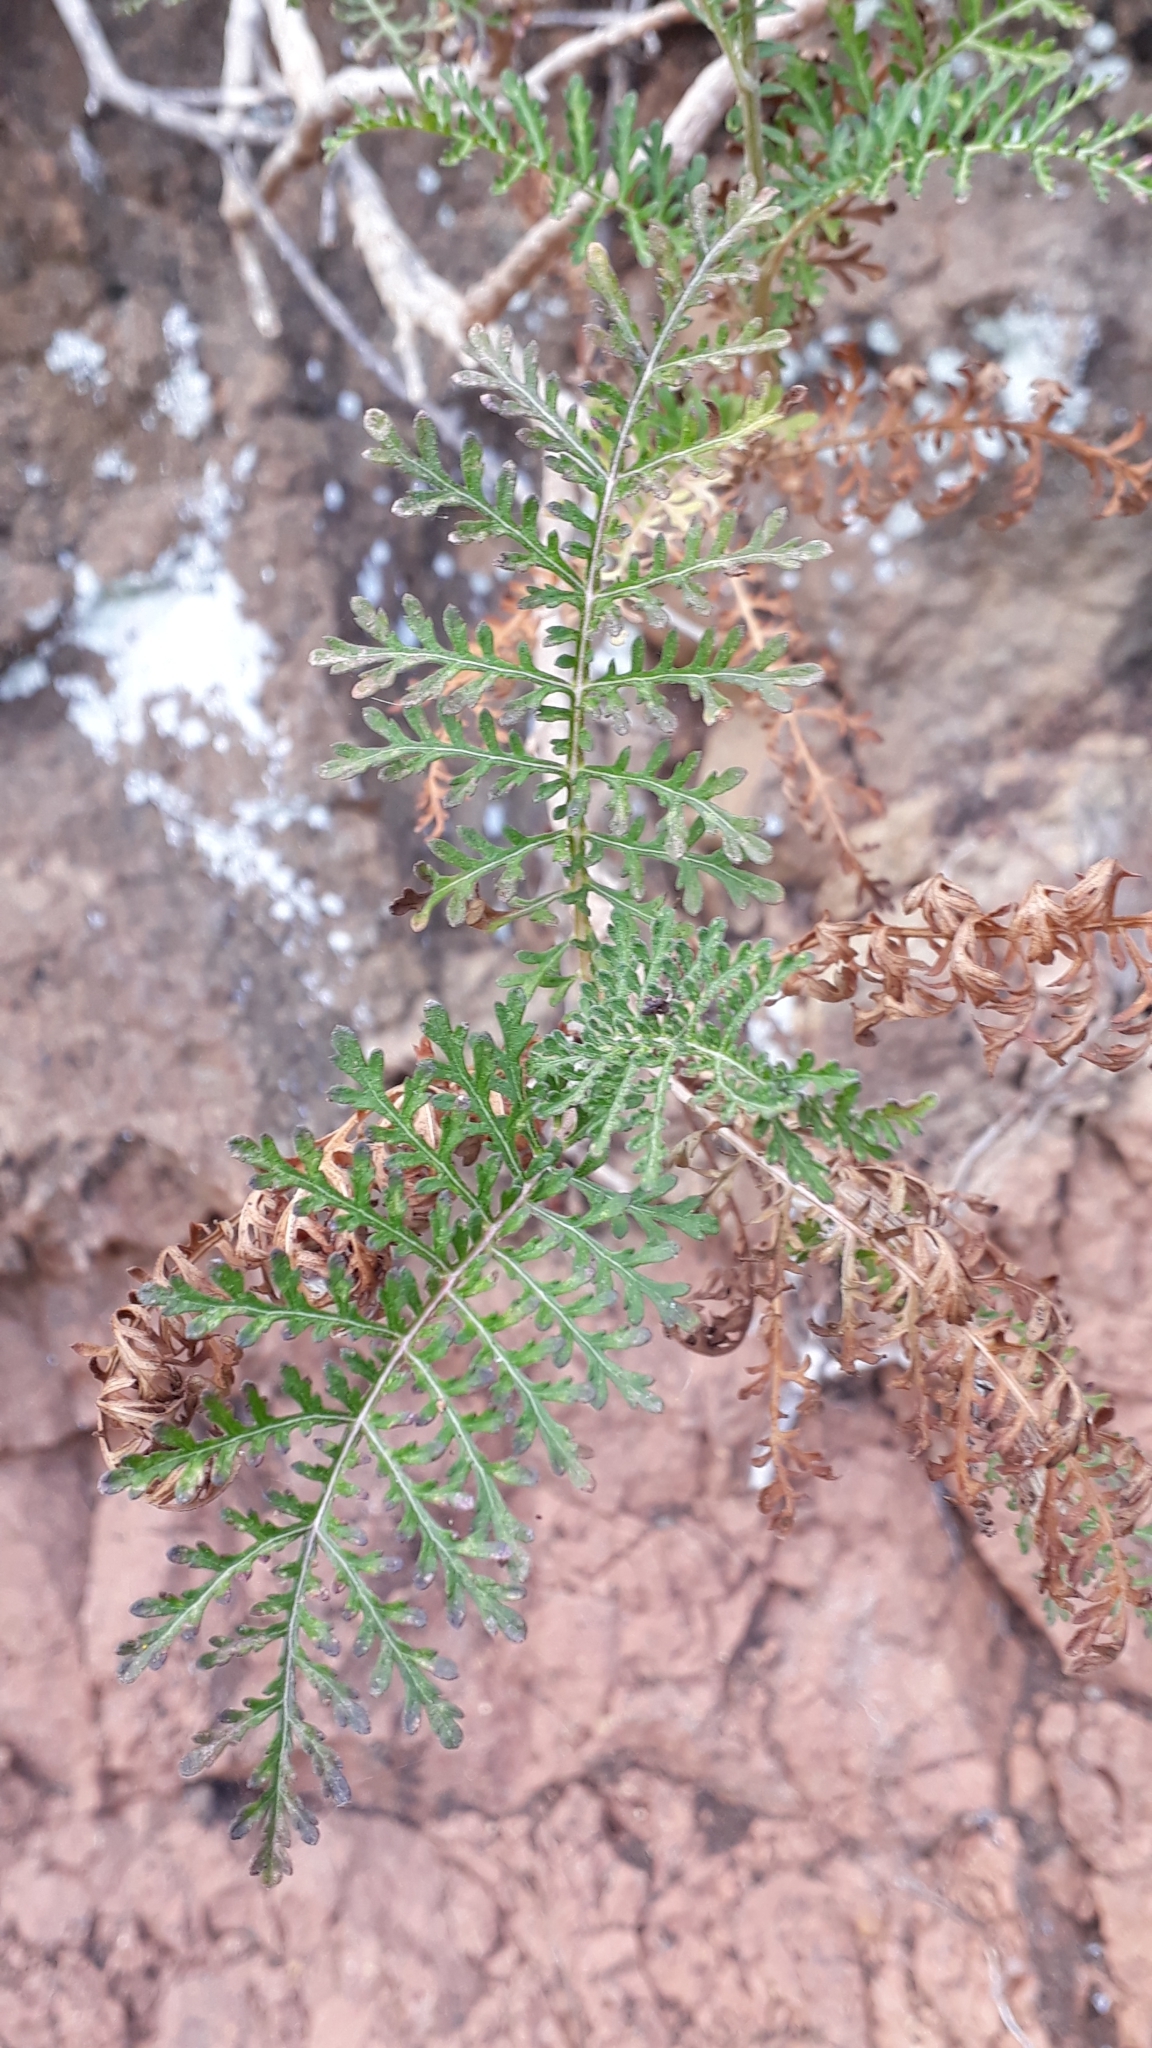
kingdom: Plantae
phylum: Tracheophyta
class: Magnoliopsida
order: Asterales
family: Asteraceae
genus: Gonospermum
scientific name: Gonospermum fruticosum
